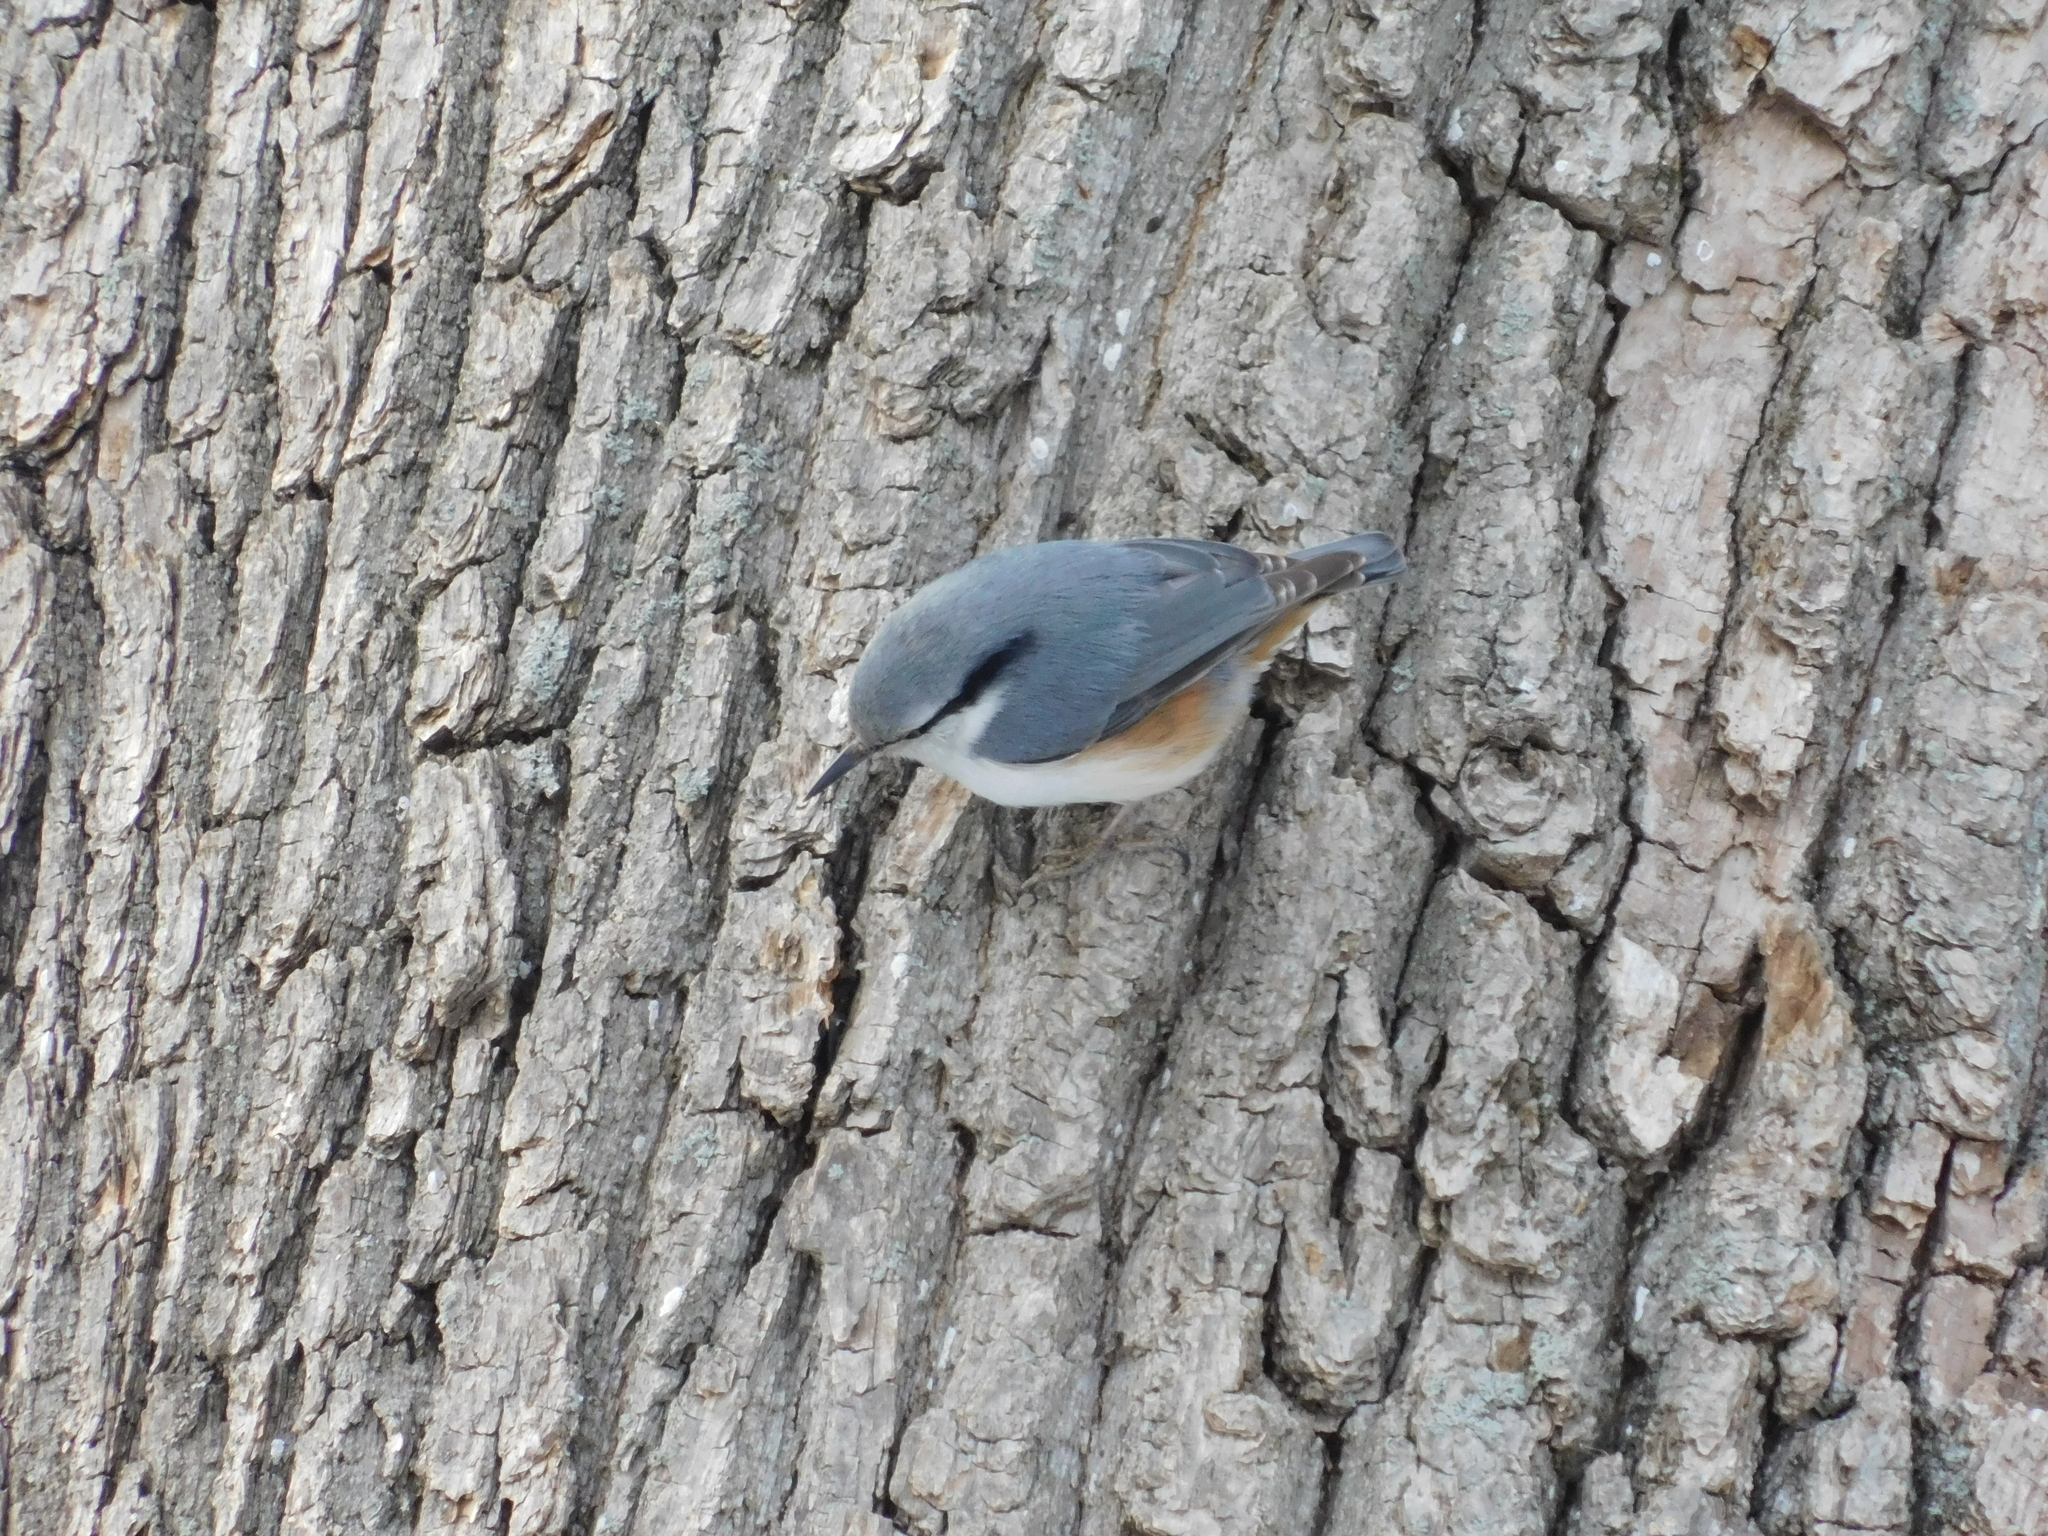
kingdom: Animalia
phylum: Chordata
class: Aves
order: Passeriformes
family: Sittidae
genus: Sitta
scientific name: Sitta europaea
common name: Eurasian nuthatch
